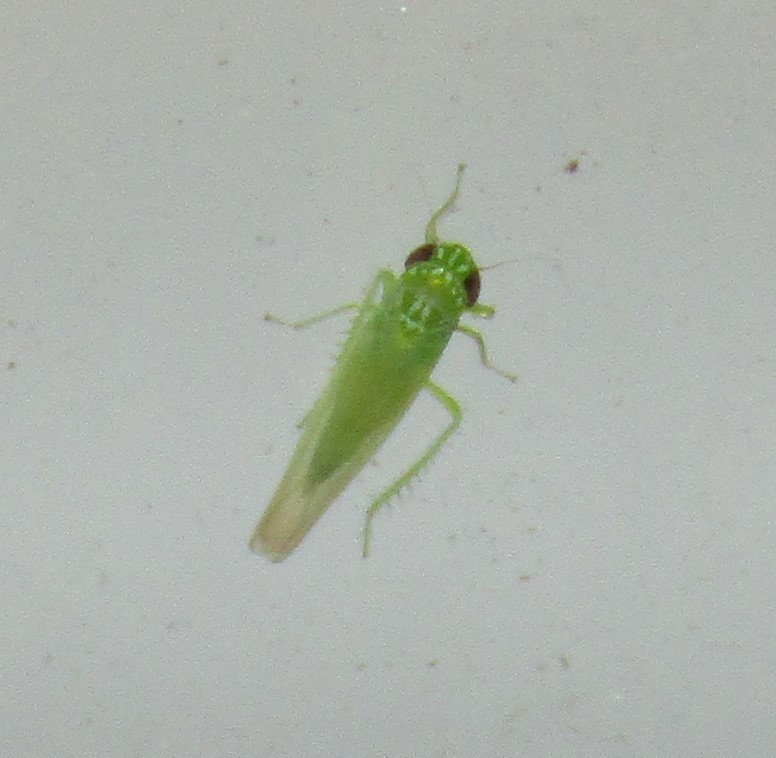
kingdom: Animalia
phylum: Arthropoda
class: Insecta
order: Hemiptera
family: Cicadellidae
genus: Empoasca
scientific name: Empoasca fabae
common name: Potato leafhopper
